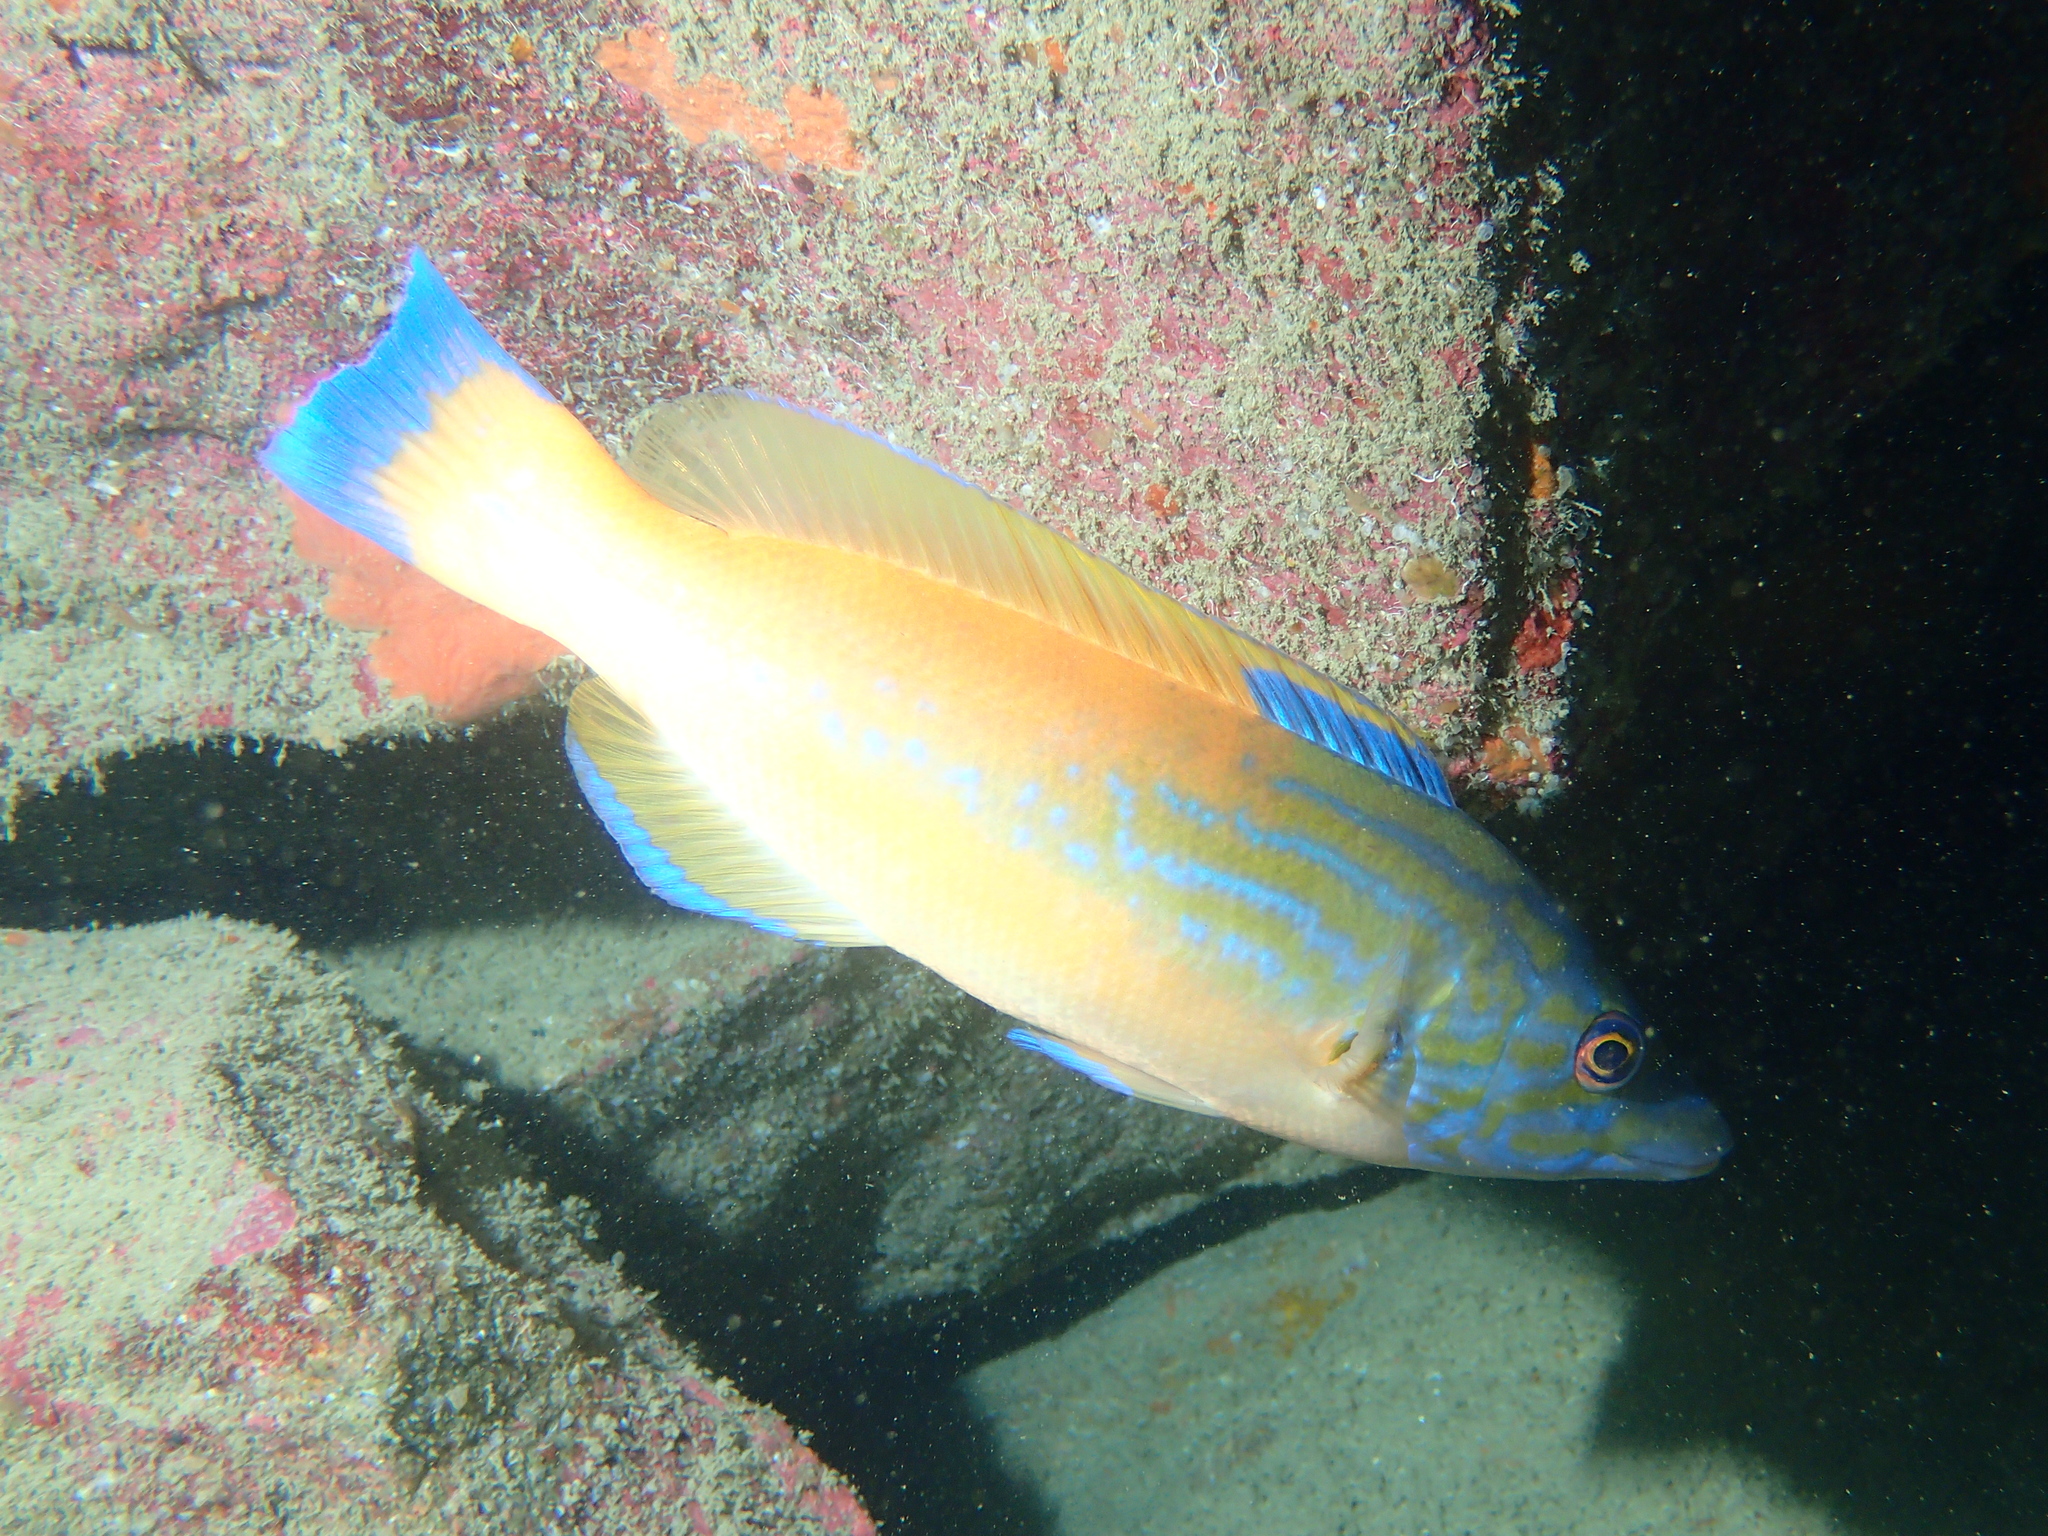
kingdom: Animalia
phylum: Chordata
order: Perciformes
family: Labridae
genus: Labrus
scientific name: Labrus mixtus
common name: Cuckoo wrasse
